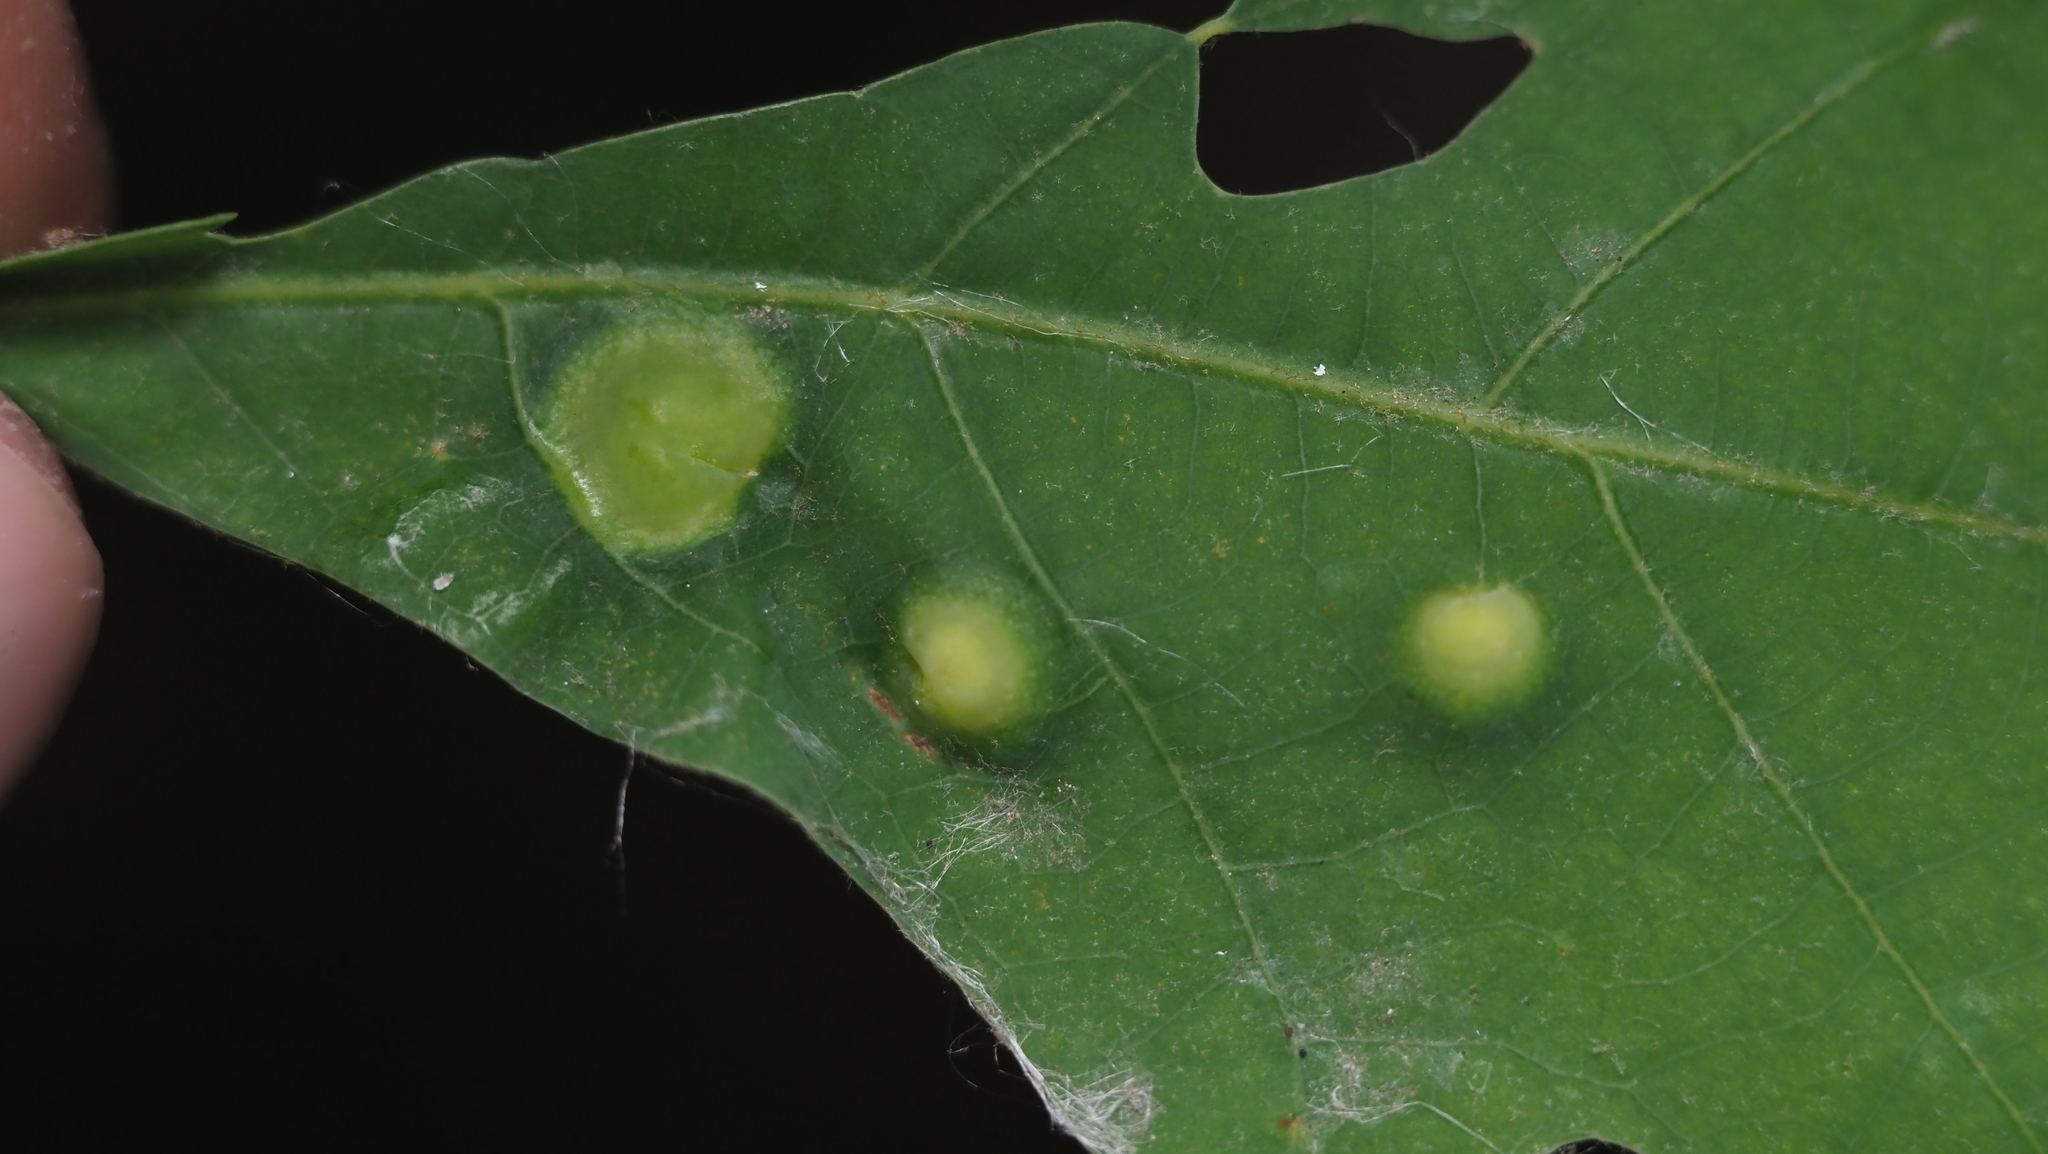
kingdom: Animalia
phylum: Arthropoda
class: Insecta
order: Hymenoptera
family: Cynipidae
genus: Callirhytis
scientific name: Callirhytis
